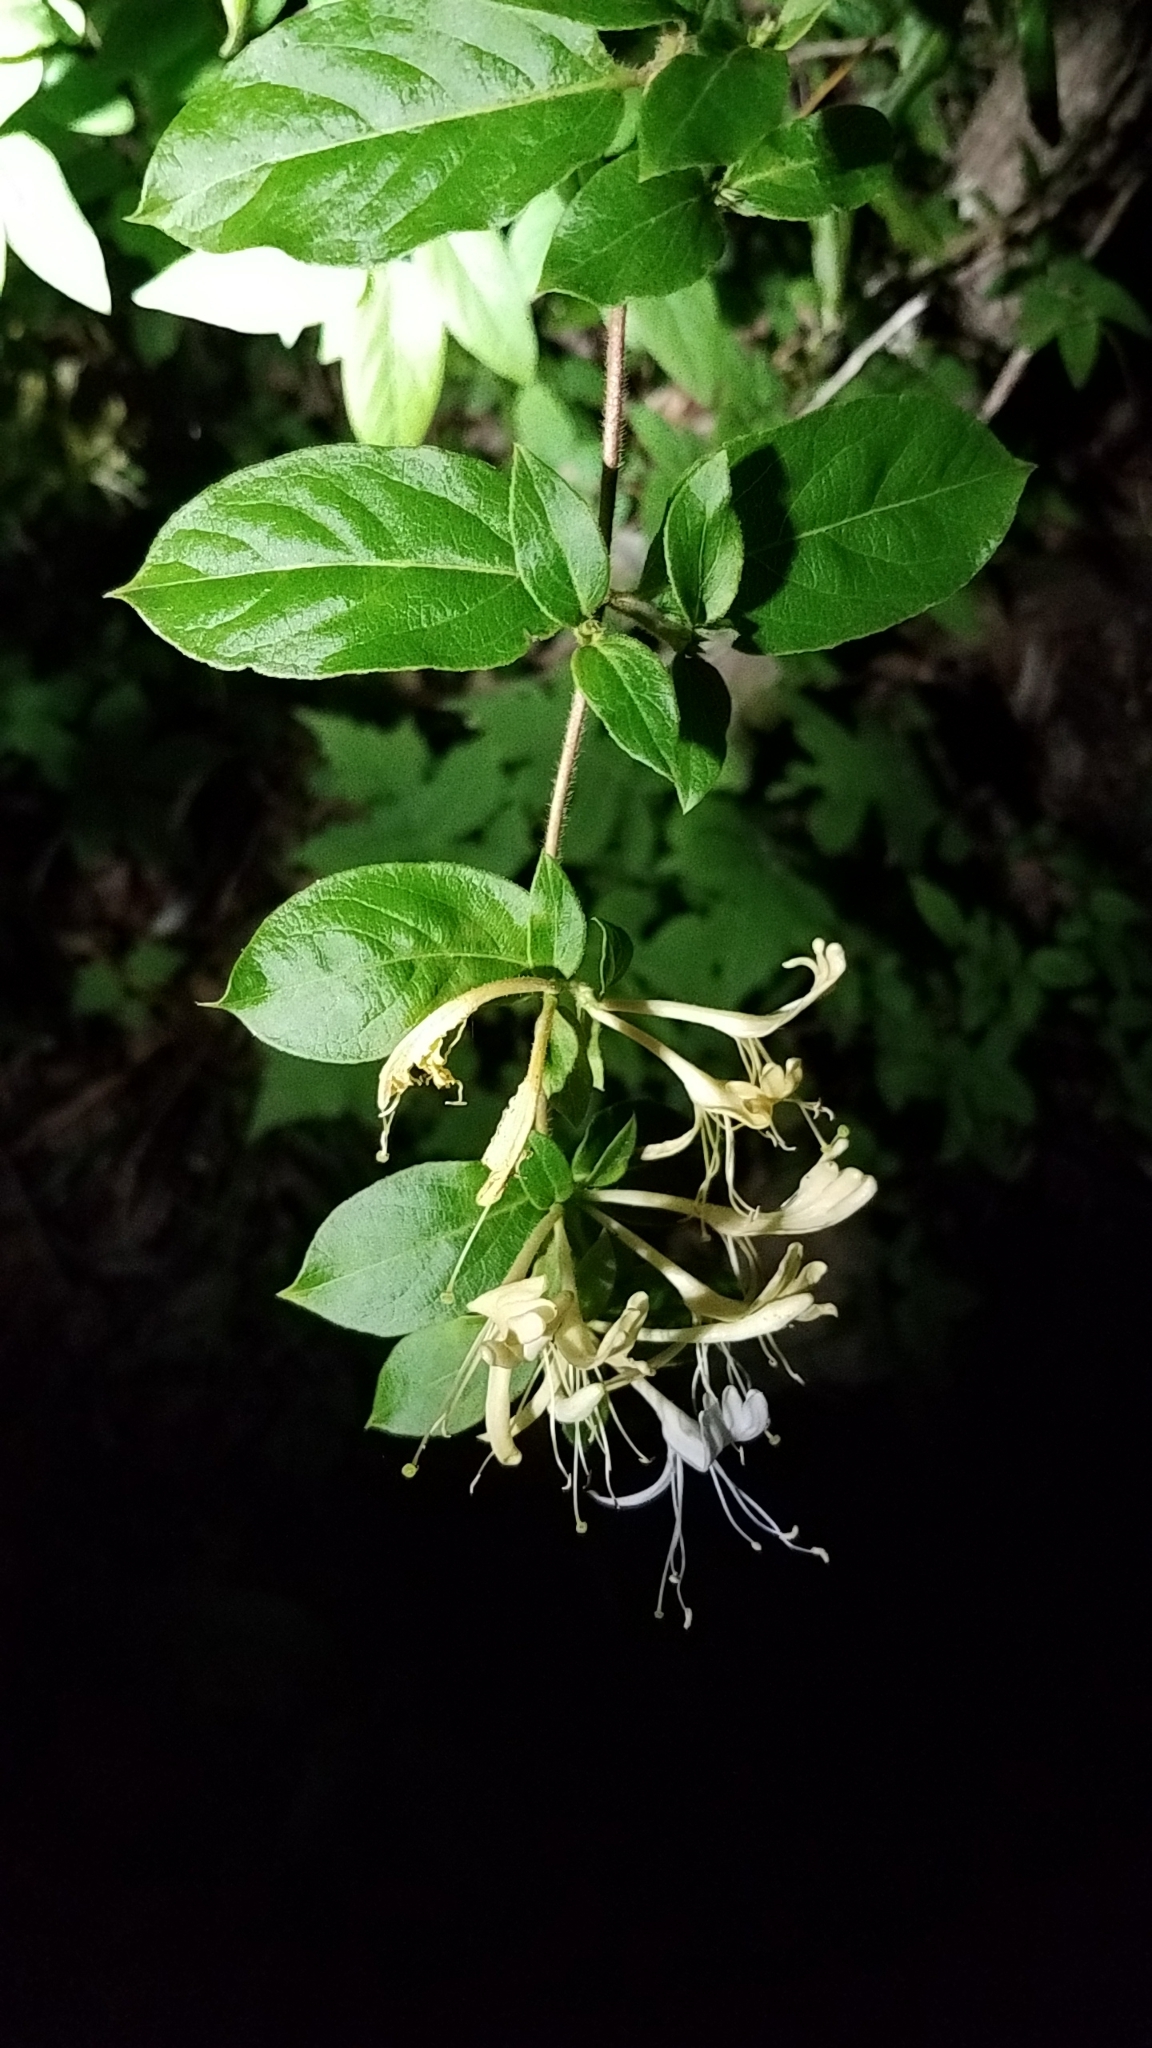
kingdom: Plantae
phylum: Tracheophyta
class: Magnoliopsida
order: Dipsacales
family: Caprifoliaceae
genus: Lonicera
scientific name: Lonicera japonica
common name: Japanese honeysuckle
